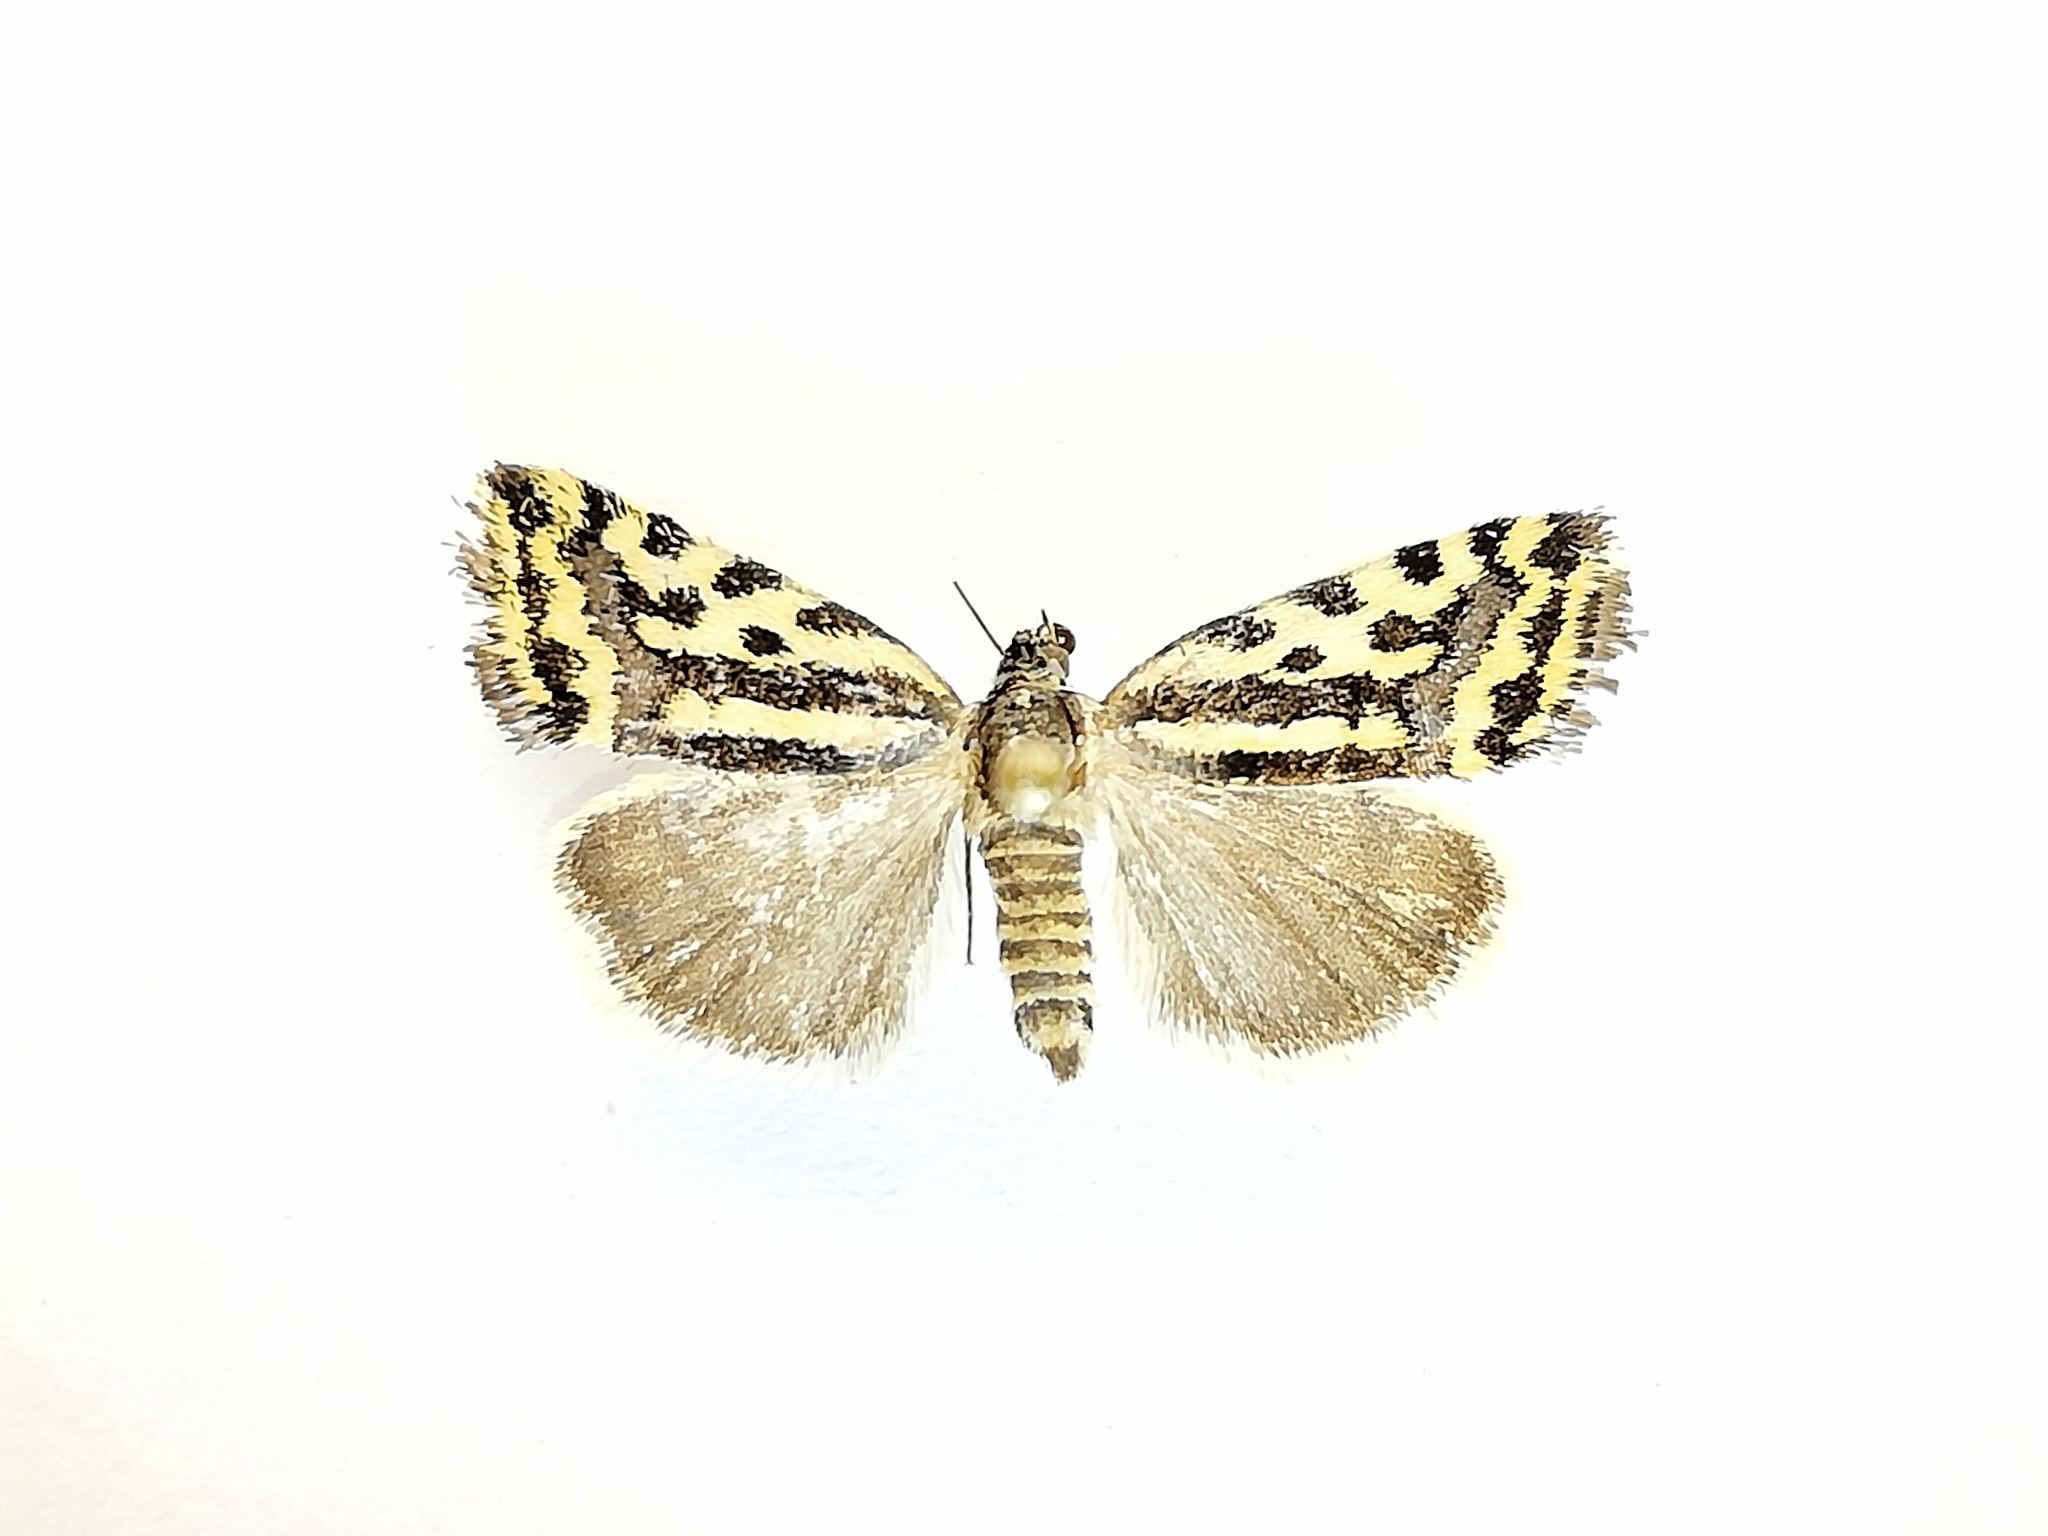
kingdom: Animalia
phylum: Arthropoda
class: Insecta
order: Lepidoptera
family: Noctuidae
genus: Acontia
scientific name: Acontia trabealis
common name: Spotted sulphur
